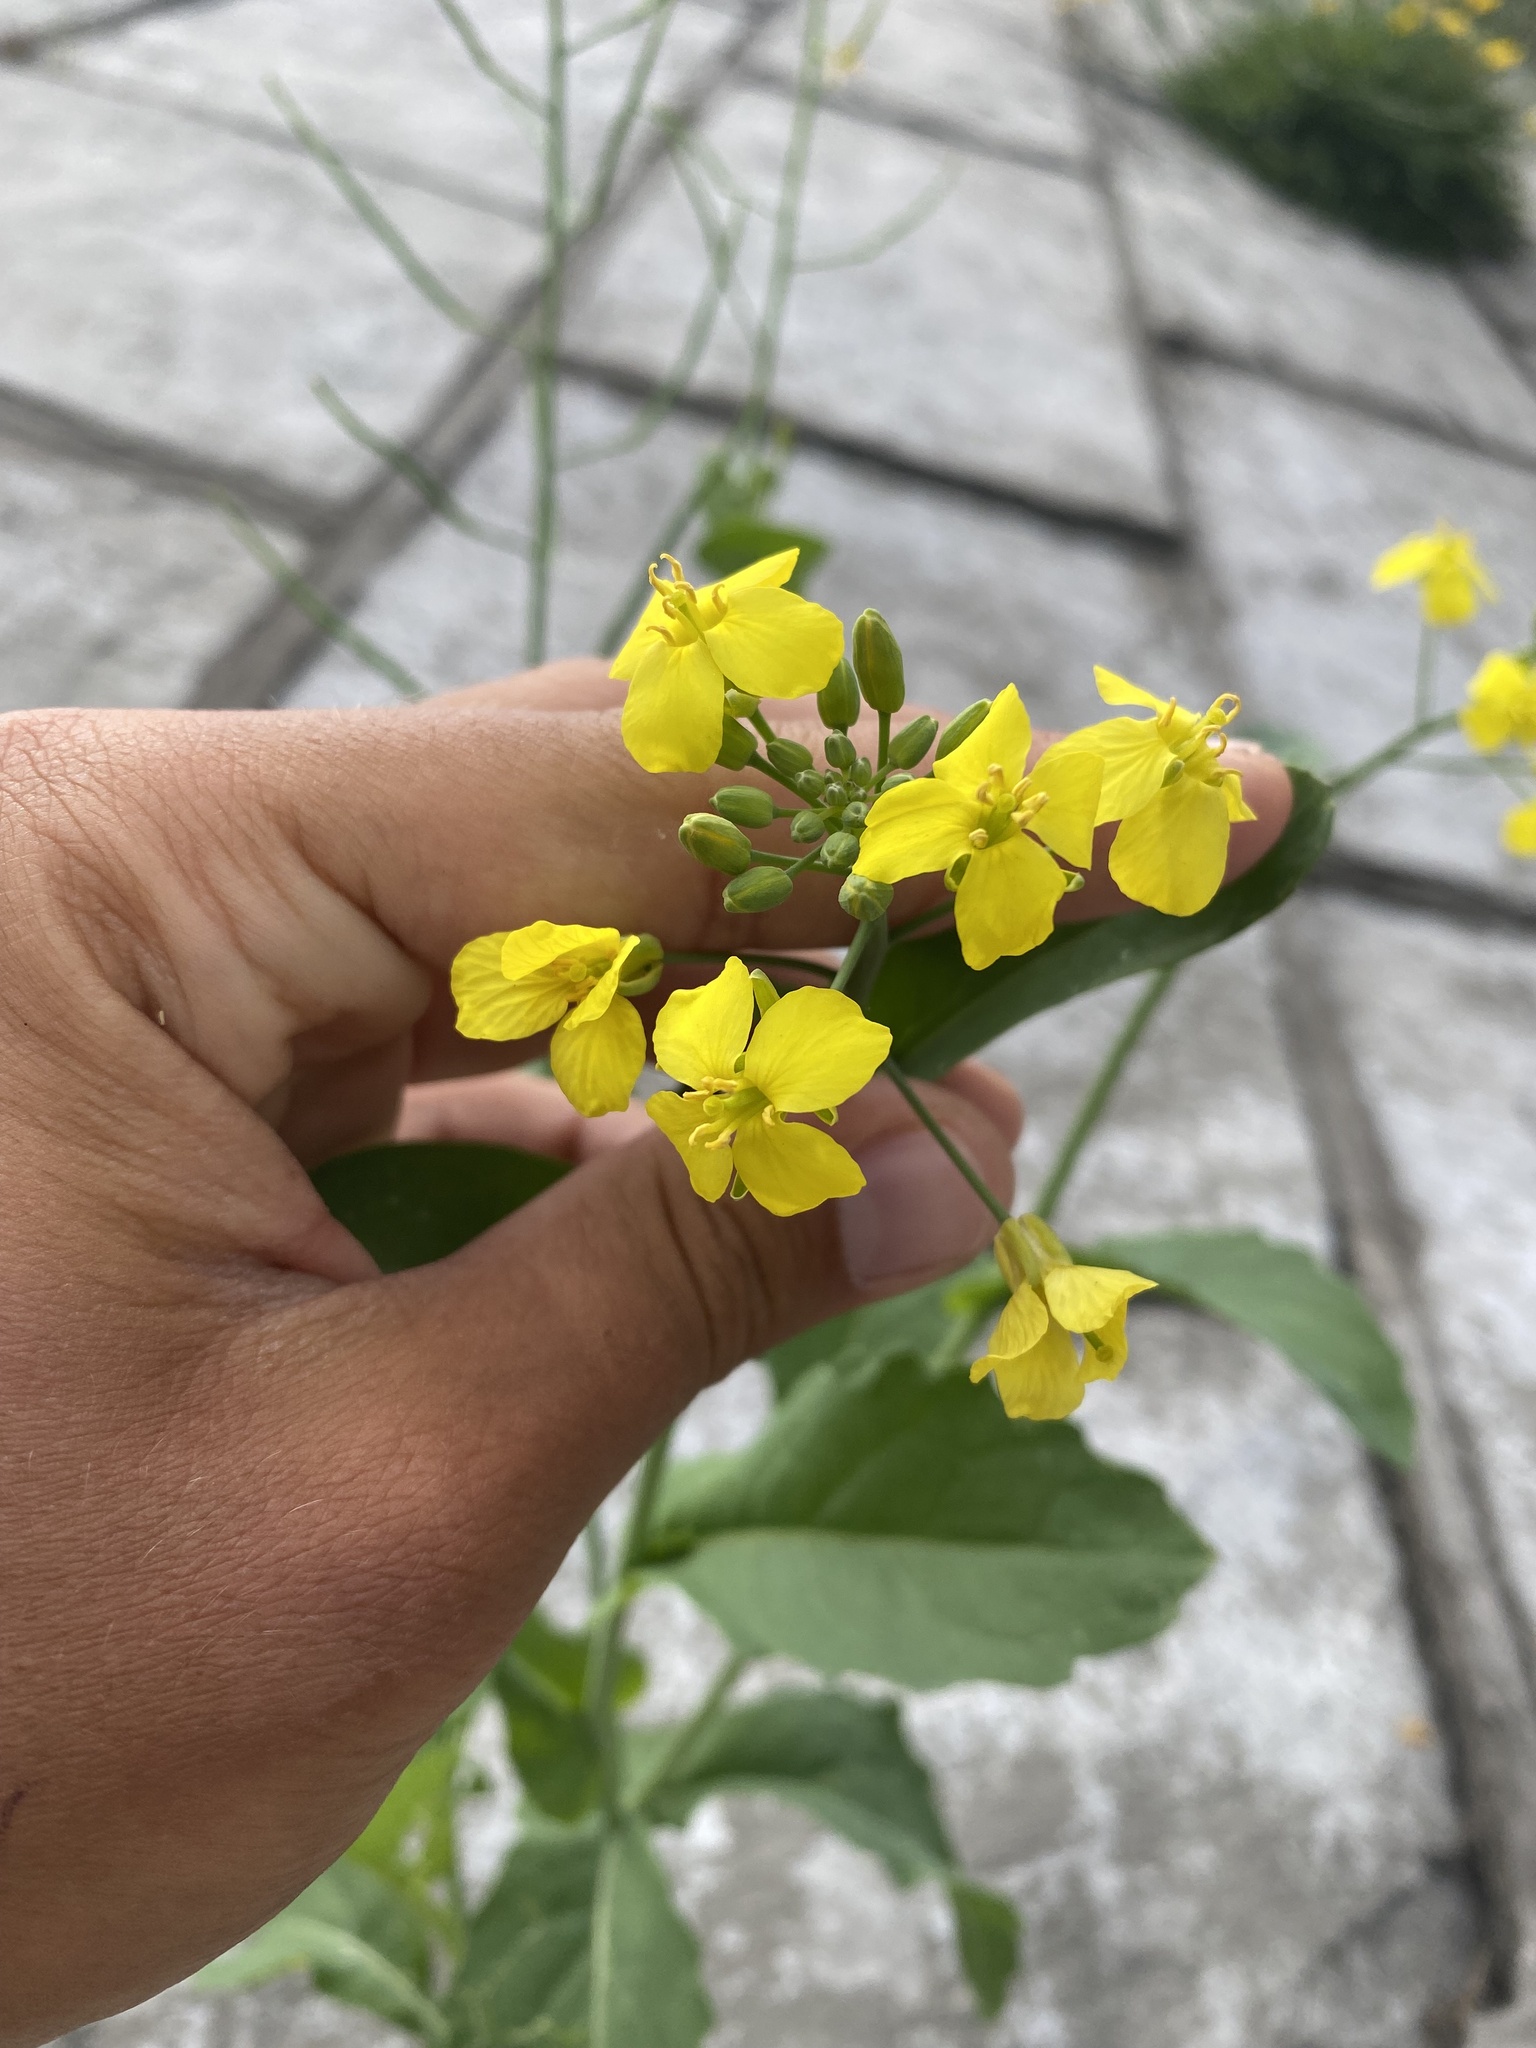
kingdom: Plantae
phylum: Tracheophyta
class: Magnoliopsida
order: Brassicales
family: Brassicaceae
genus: Brassica
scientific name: Brassica rapa
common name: Field mustard
